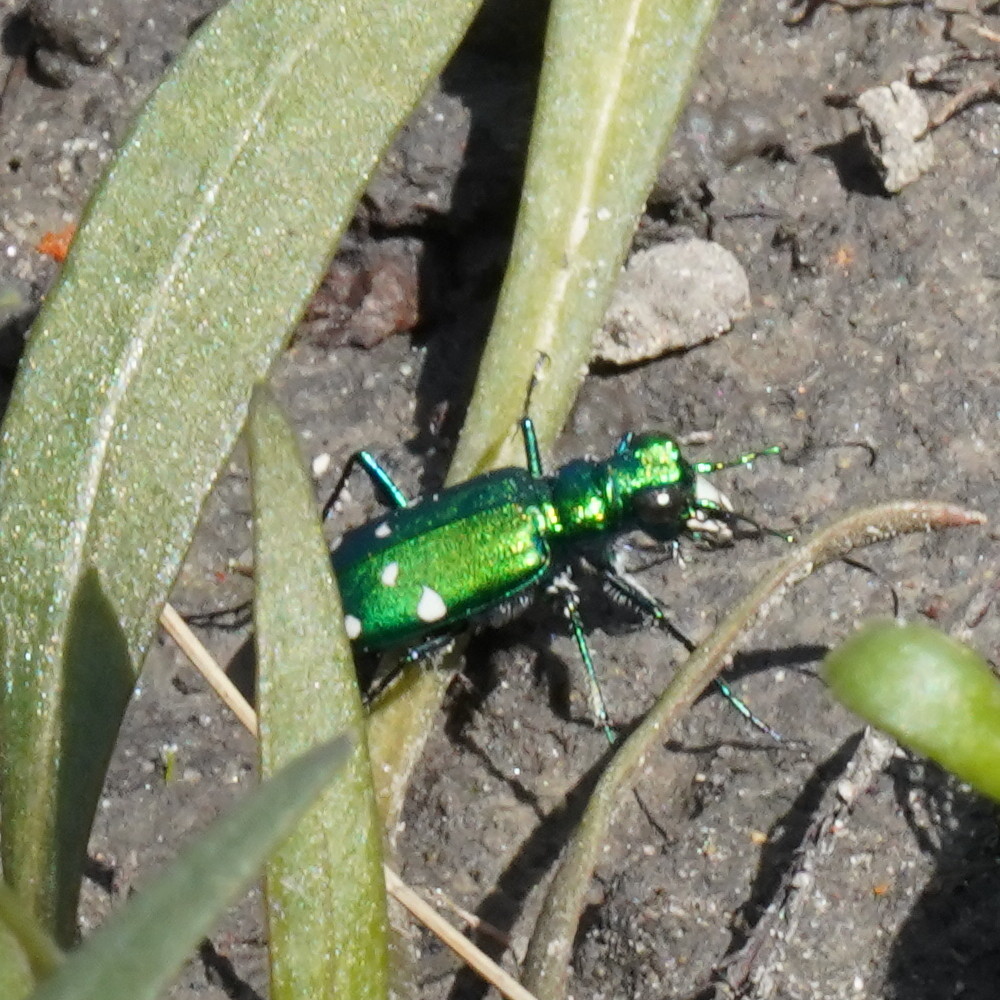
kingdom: Animalia
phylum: Arthropoda
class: Insecta
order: Coleoptera
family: Carabidae
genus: Cicindela
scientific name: Cicindela sexguttata
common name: Six-spotted tiger beetle
